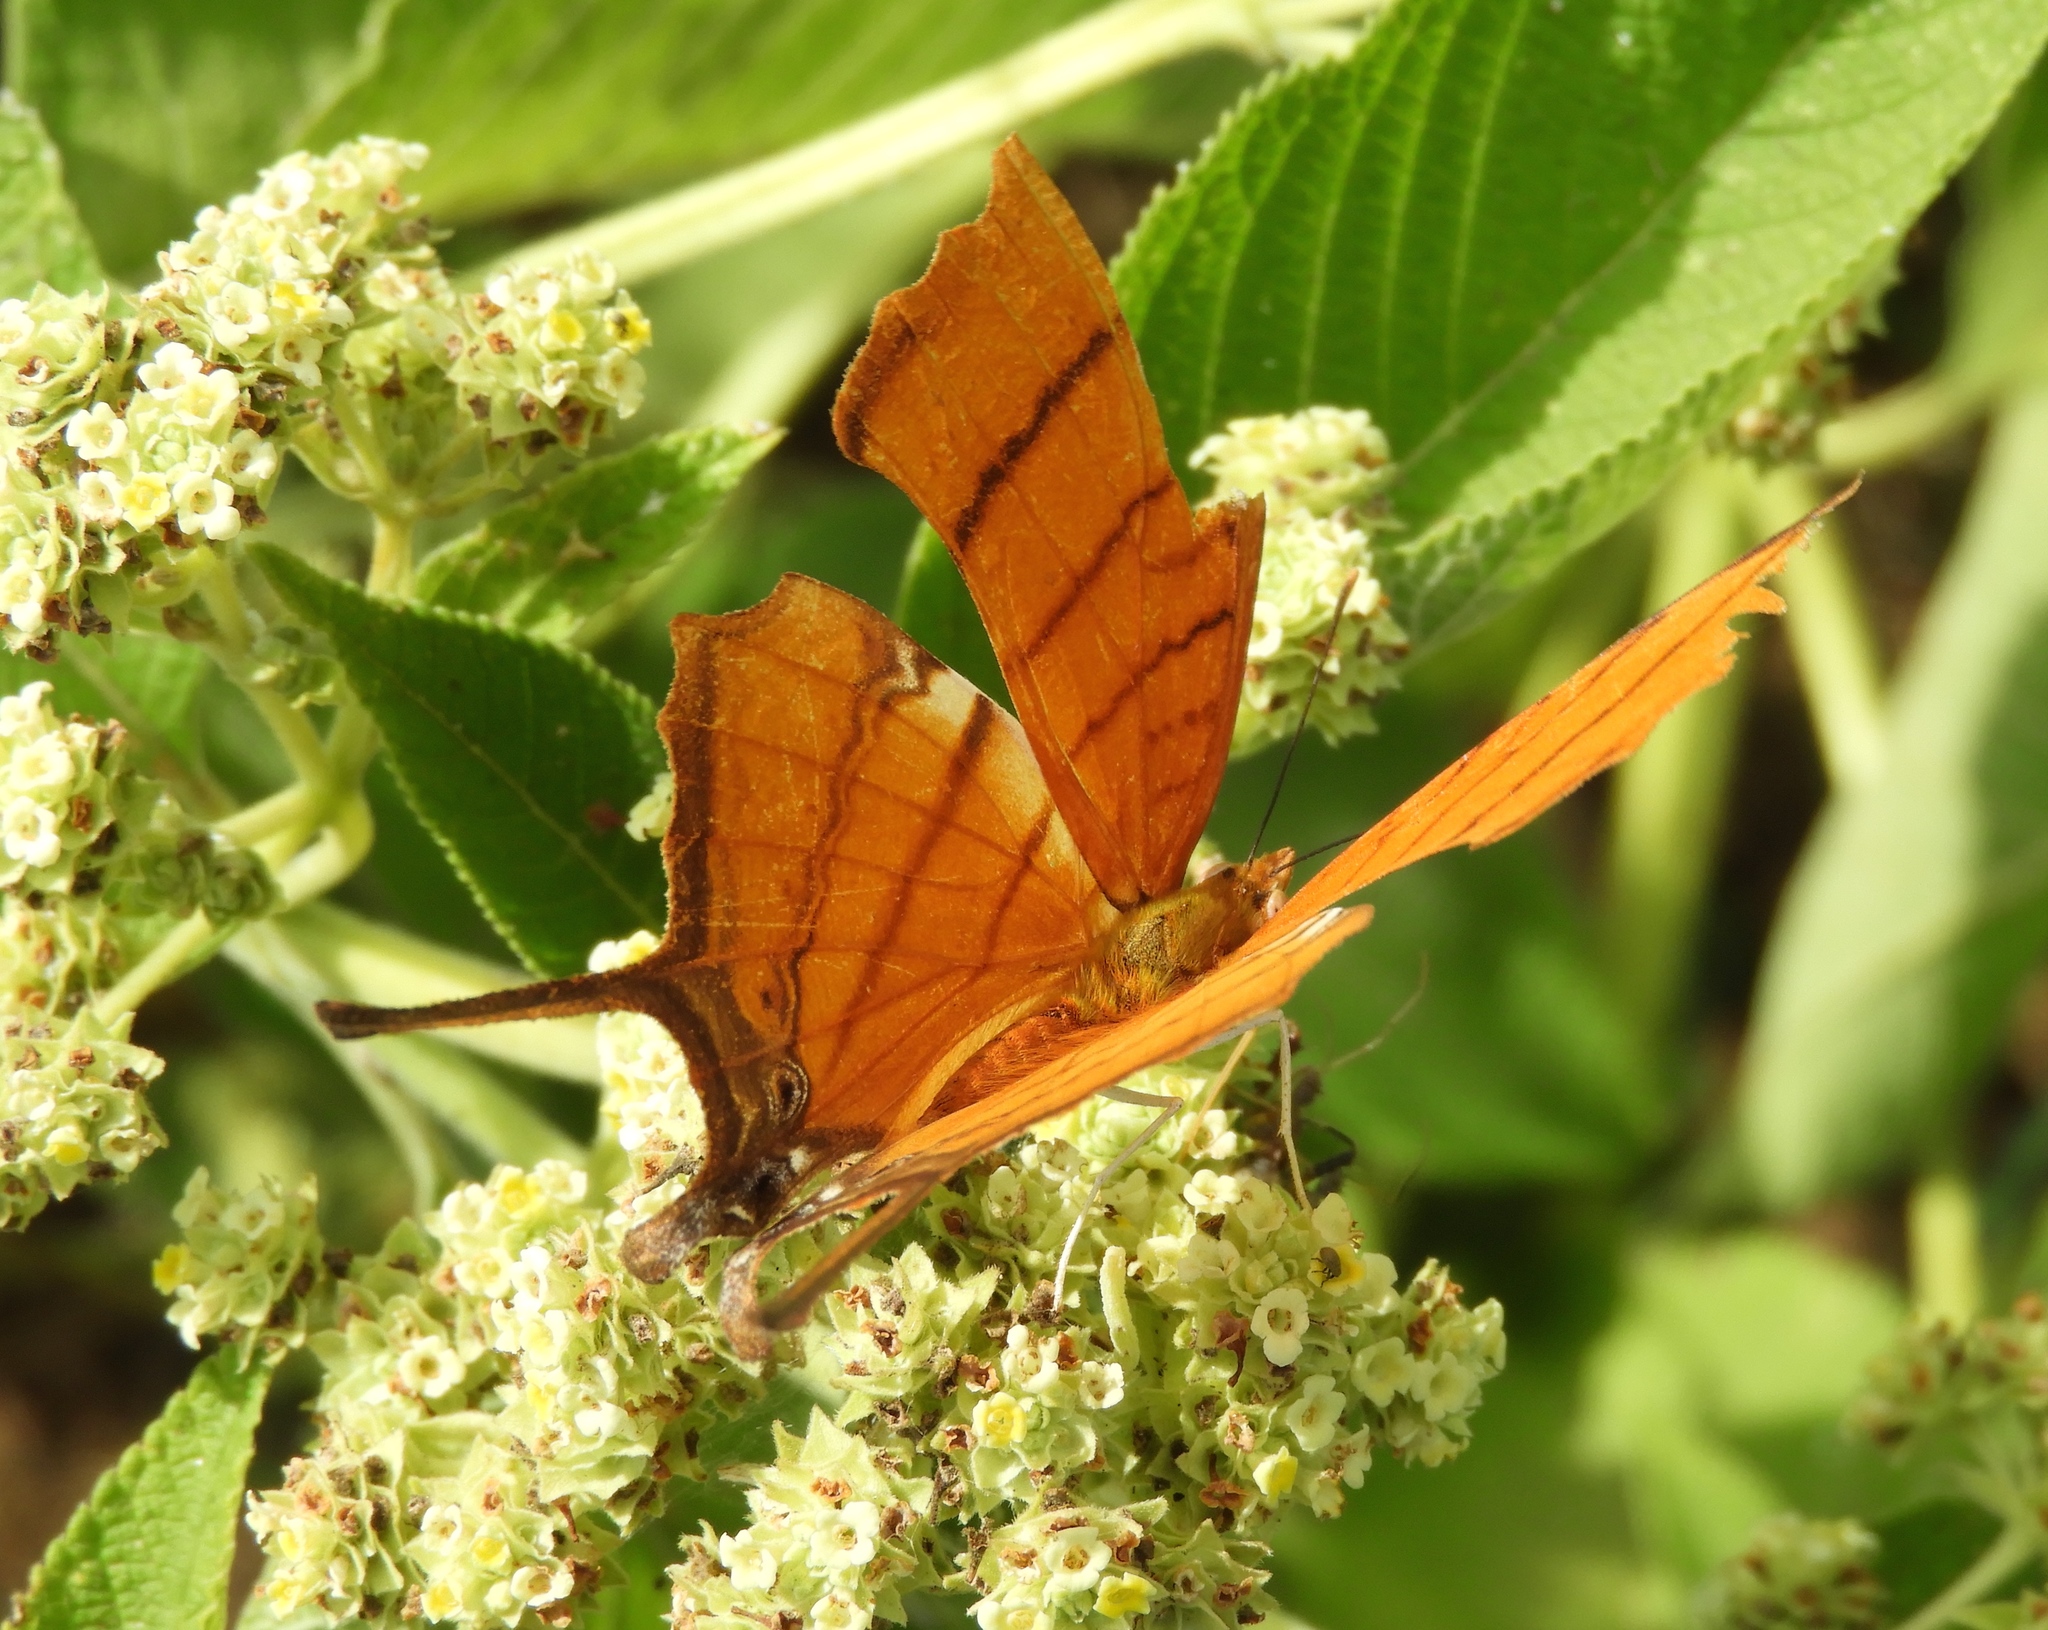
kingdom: Animalia
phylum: Arthropoda
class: Insecta
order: Lepidoptera
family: Nymphalidae
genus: Marpesia
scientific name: Marpesia petreus
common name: Red dagger wing
